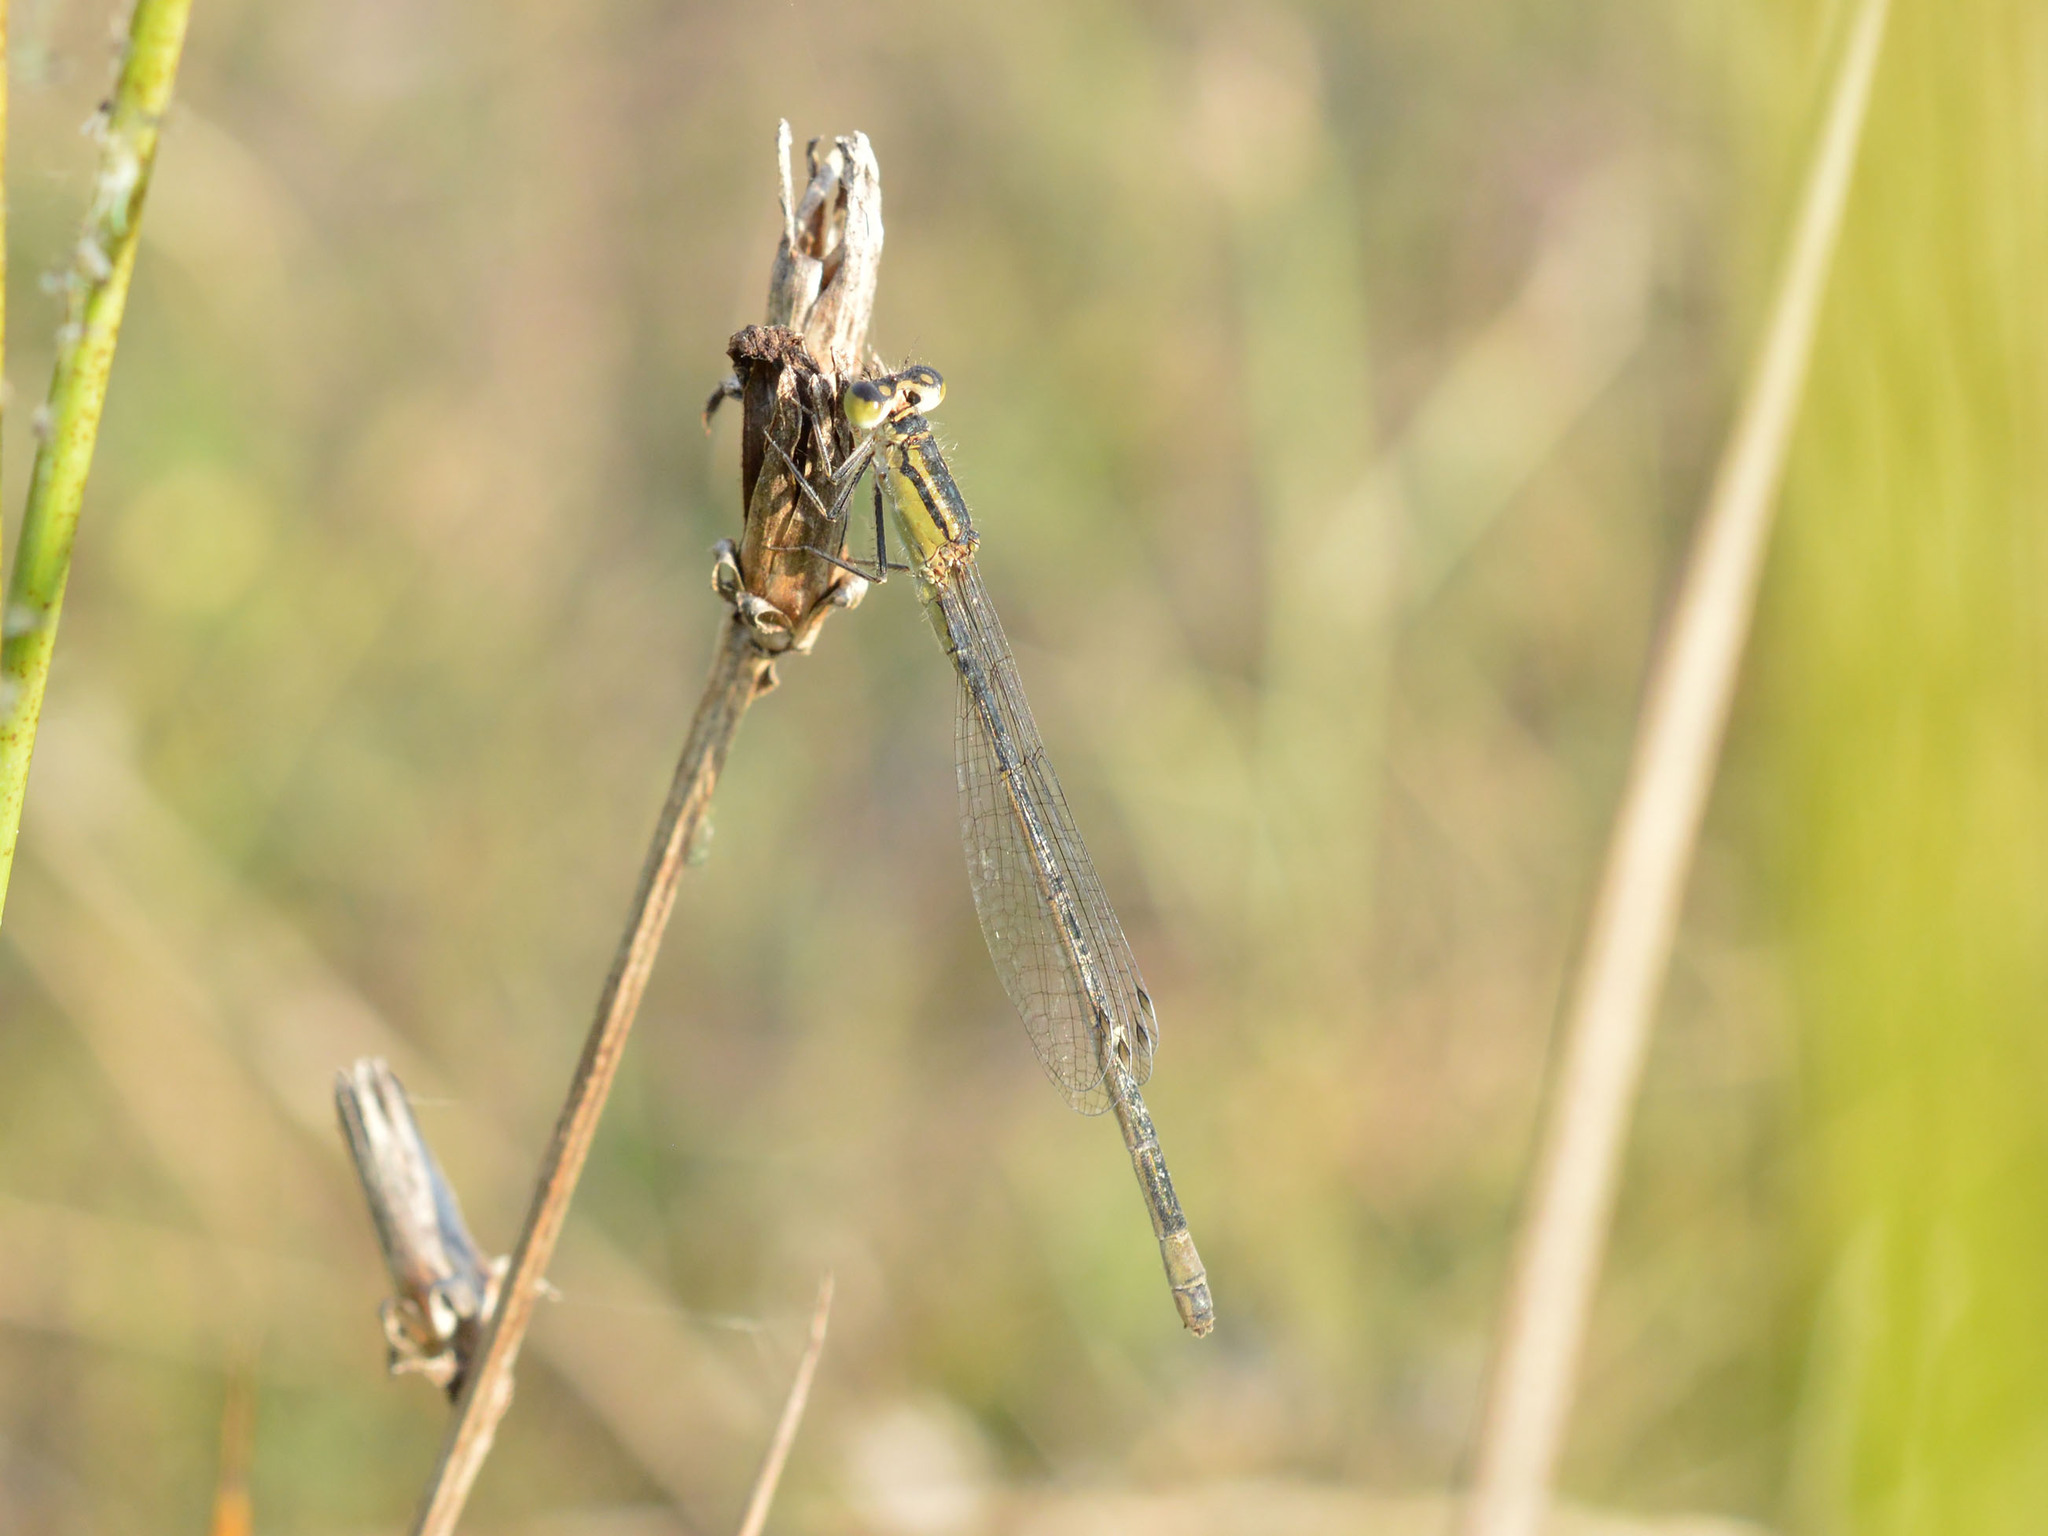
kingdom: Animalia
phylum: Arthropoda
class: Insecta
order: Odonata
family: Coenagrionidae
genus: Ischnura
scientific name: Ischnura elegans
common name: Blue-tailed damselfly
